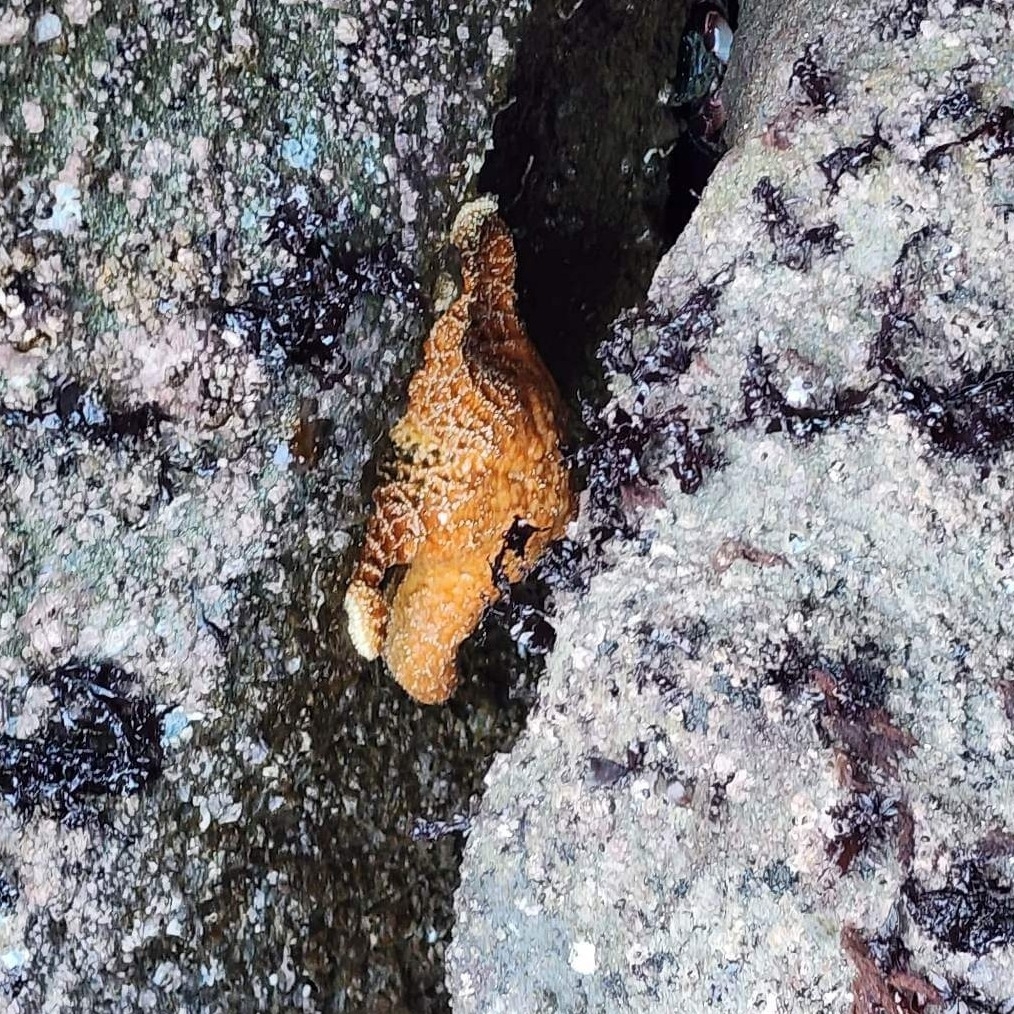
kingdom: Animalia
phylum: Echinodermata
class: Asteroidea
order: Forcipulatida
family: Asteriidae
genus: Pisaster
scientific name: Pisaster ochraceus
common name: Ochre stars
